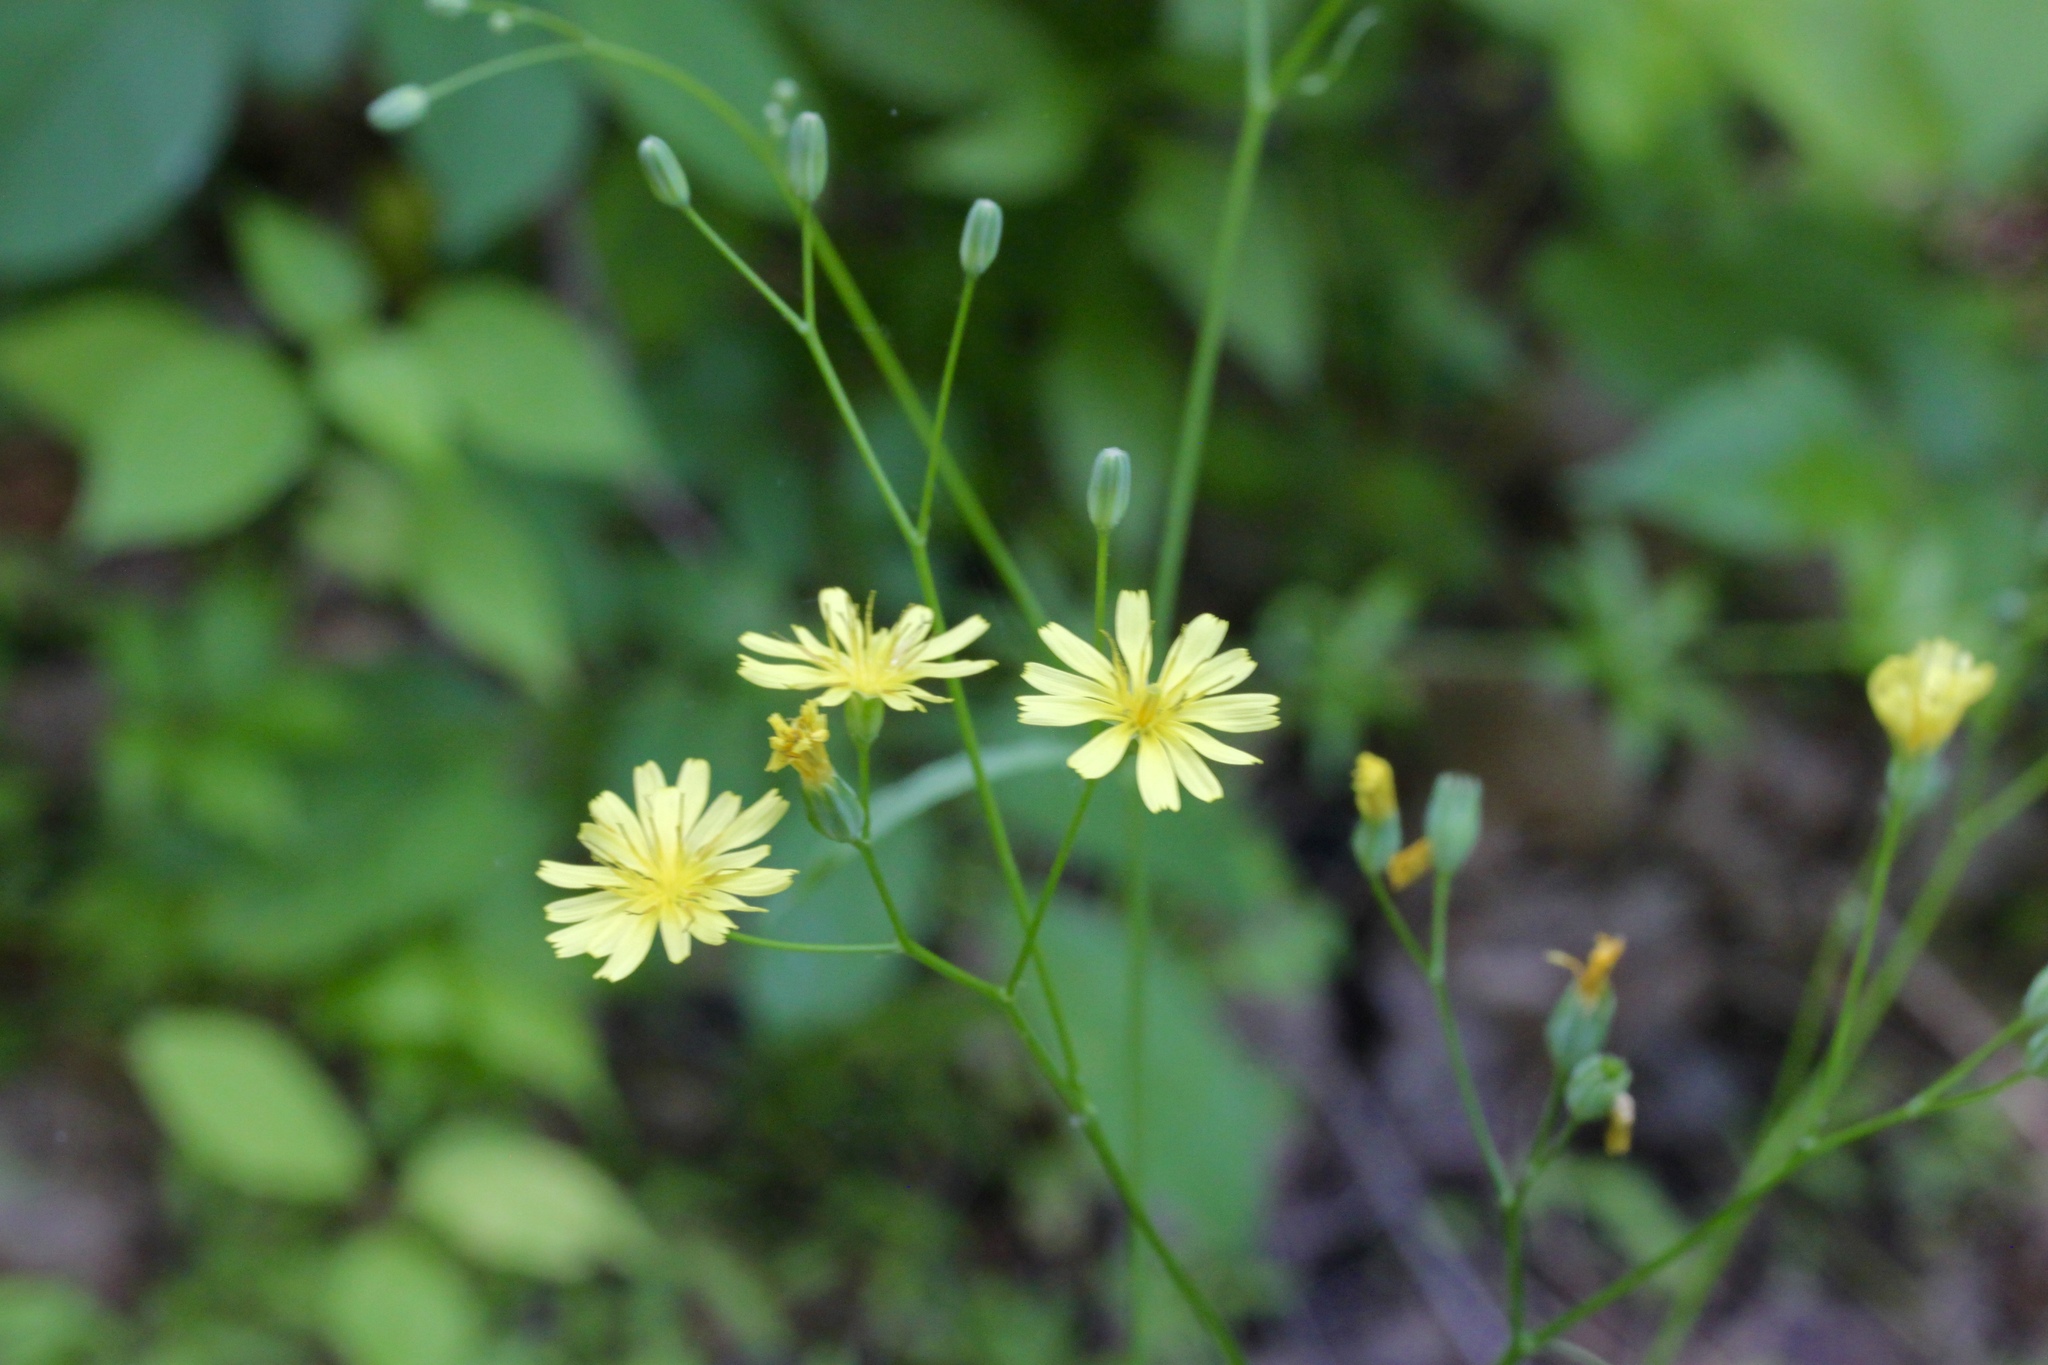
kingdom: Plantae
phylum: Tracheophyta
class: Magnoliopsida
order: Asterales
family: Asteraceae
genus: Hieracium
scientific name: Hieracium paniculatum
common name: Allegheny hawkweed
